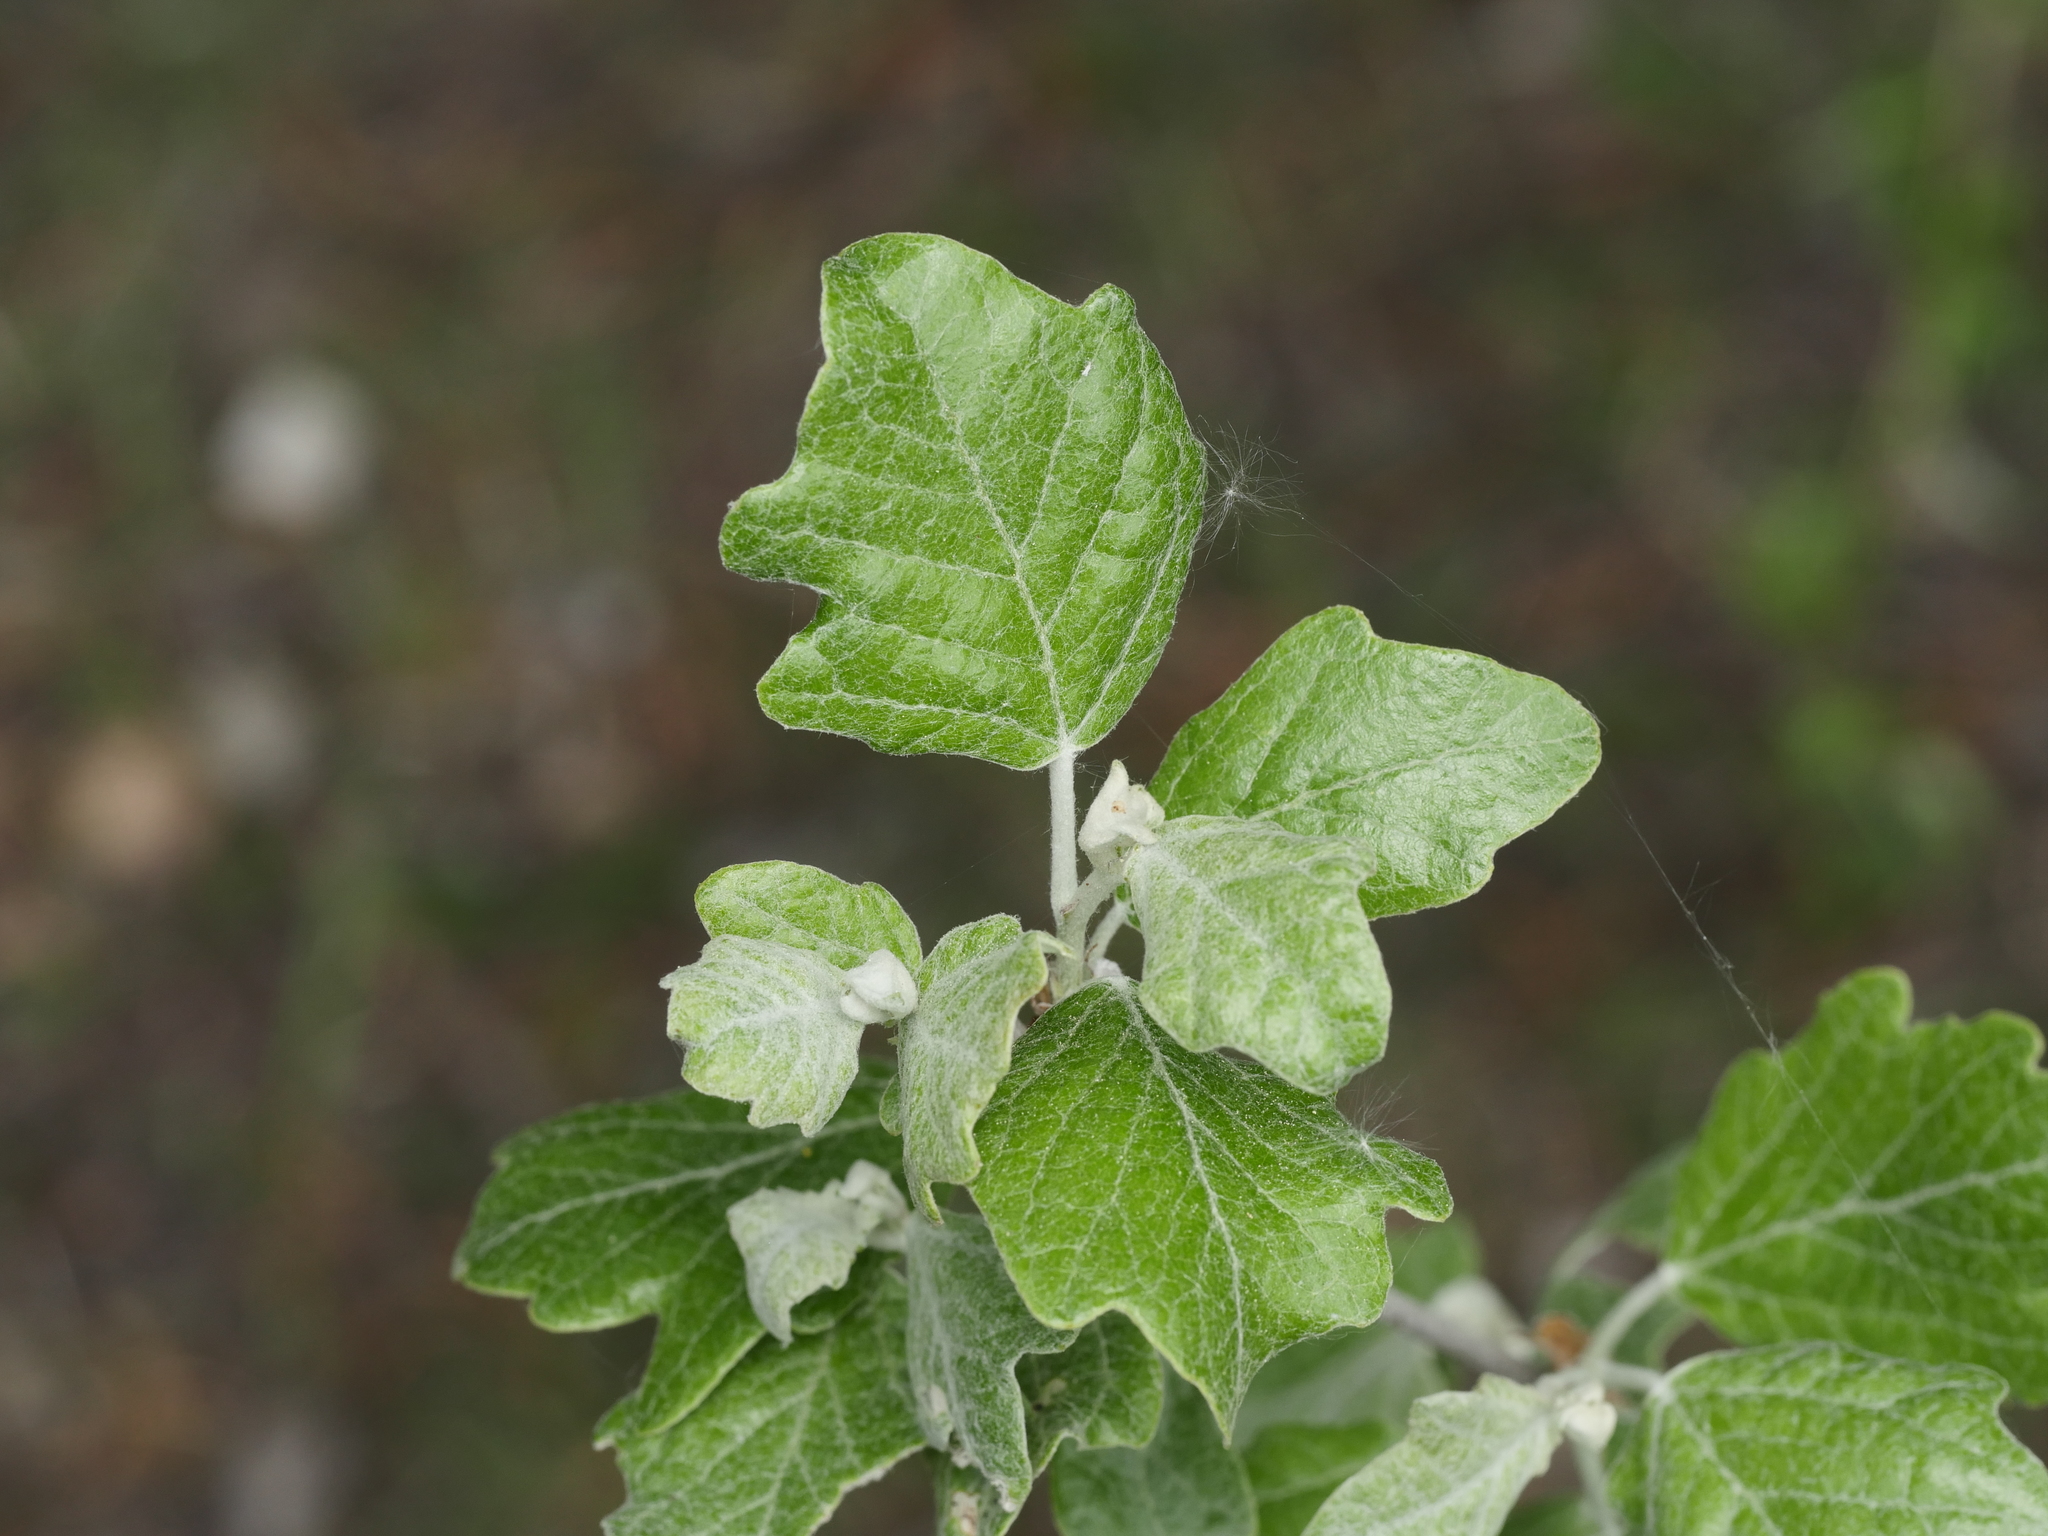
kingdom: Plantae
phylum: Tracheophyta
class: Magnoliopsida
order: Malpighiales
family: Salicaceae
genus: Populus
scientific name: Populus alba
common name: White poplar
